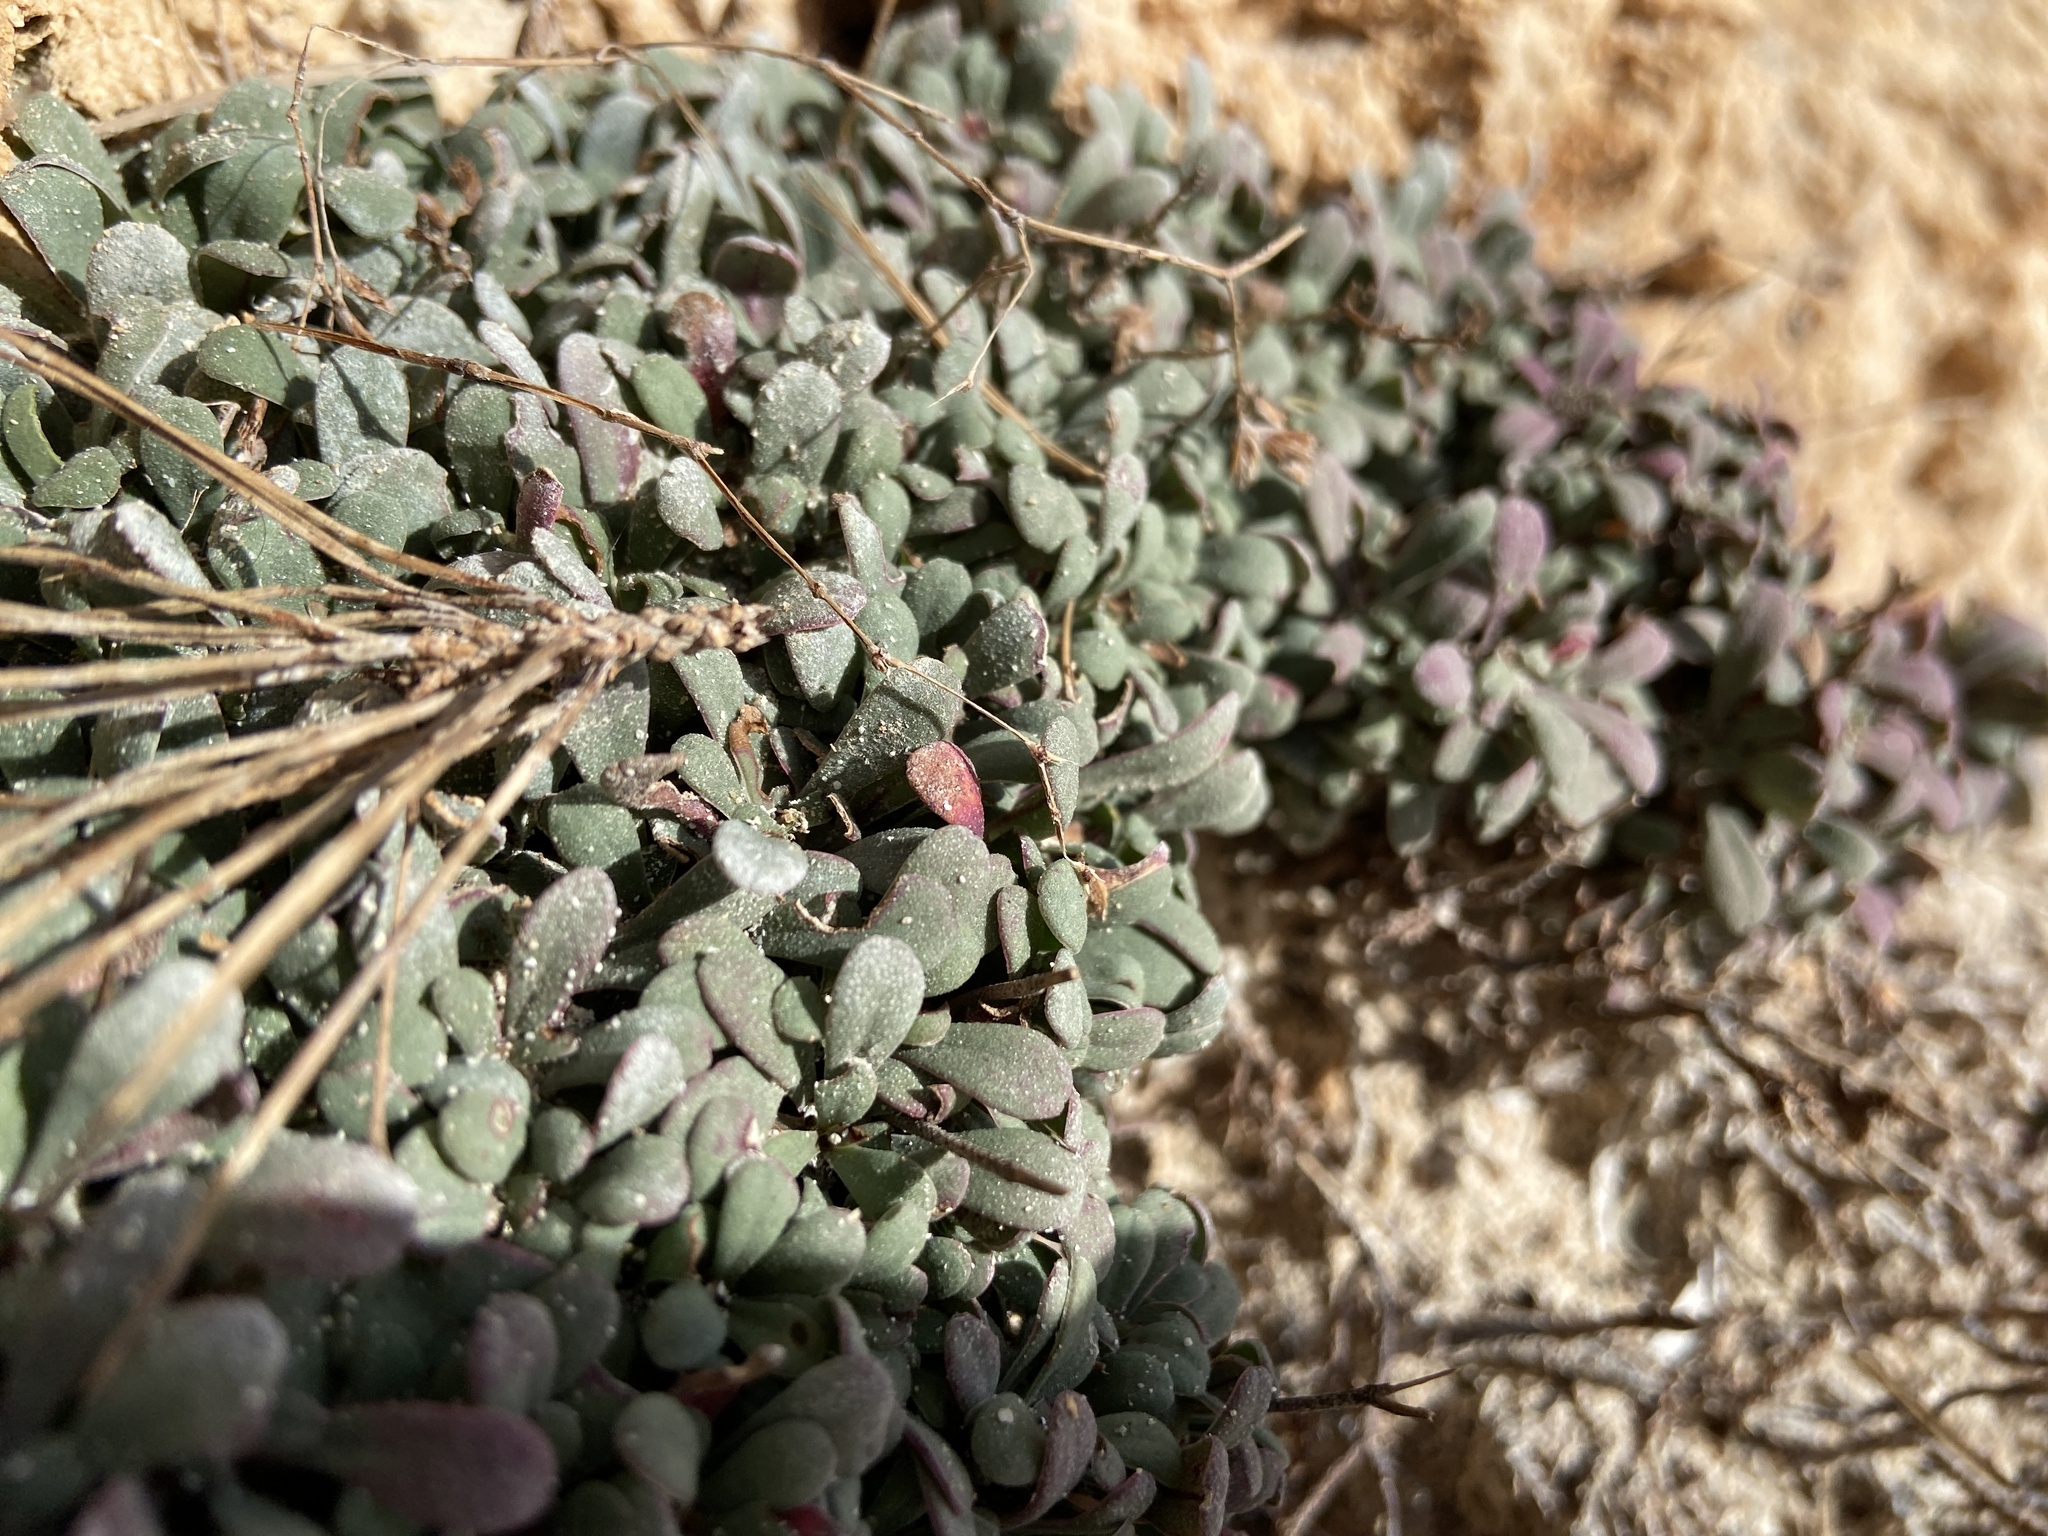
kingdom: Plantae
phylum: Tracheophyta
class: Magnoliopsida
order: Caryophyllales
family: Plumbaginaceae
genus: Limonium
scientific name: Limonium minutum
